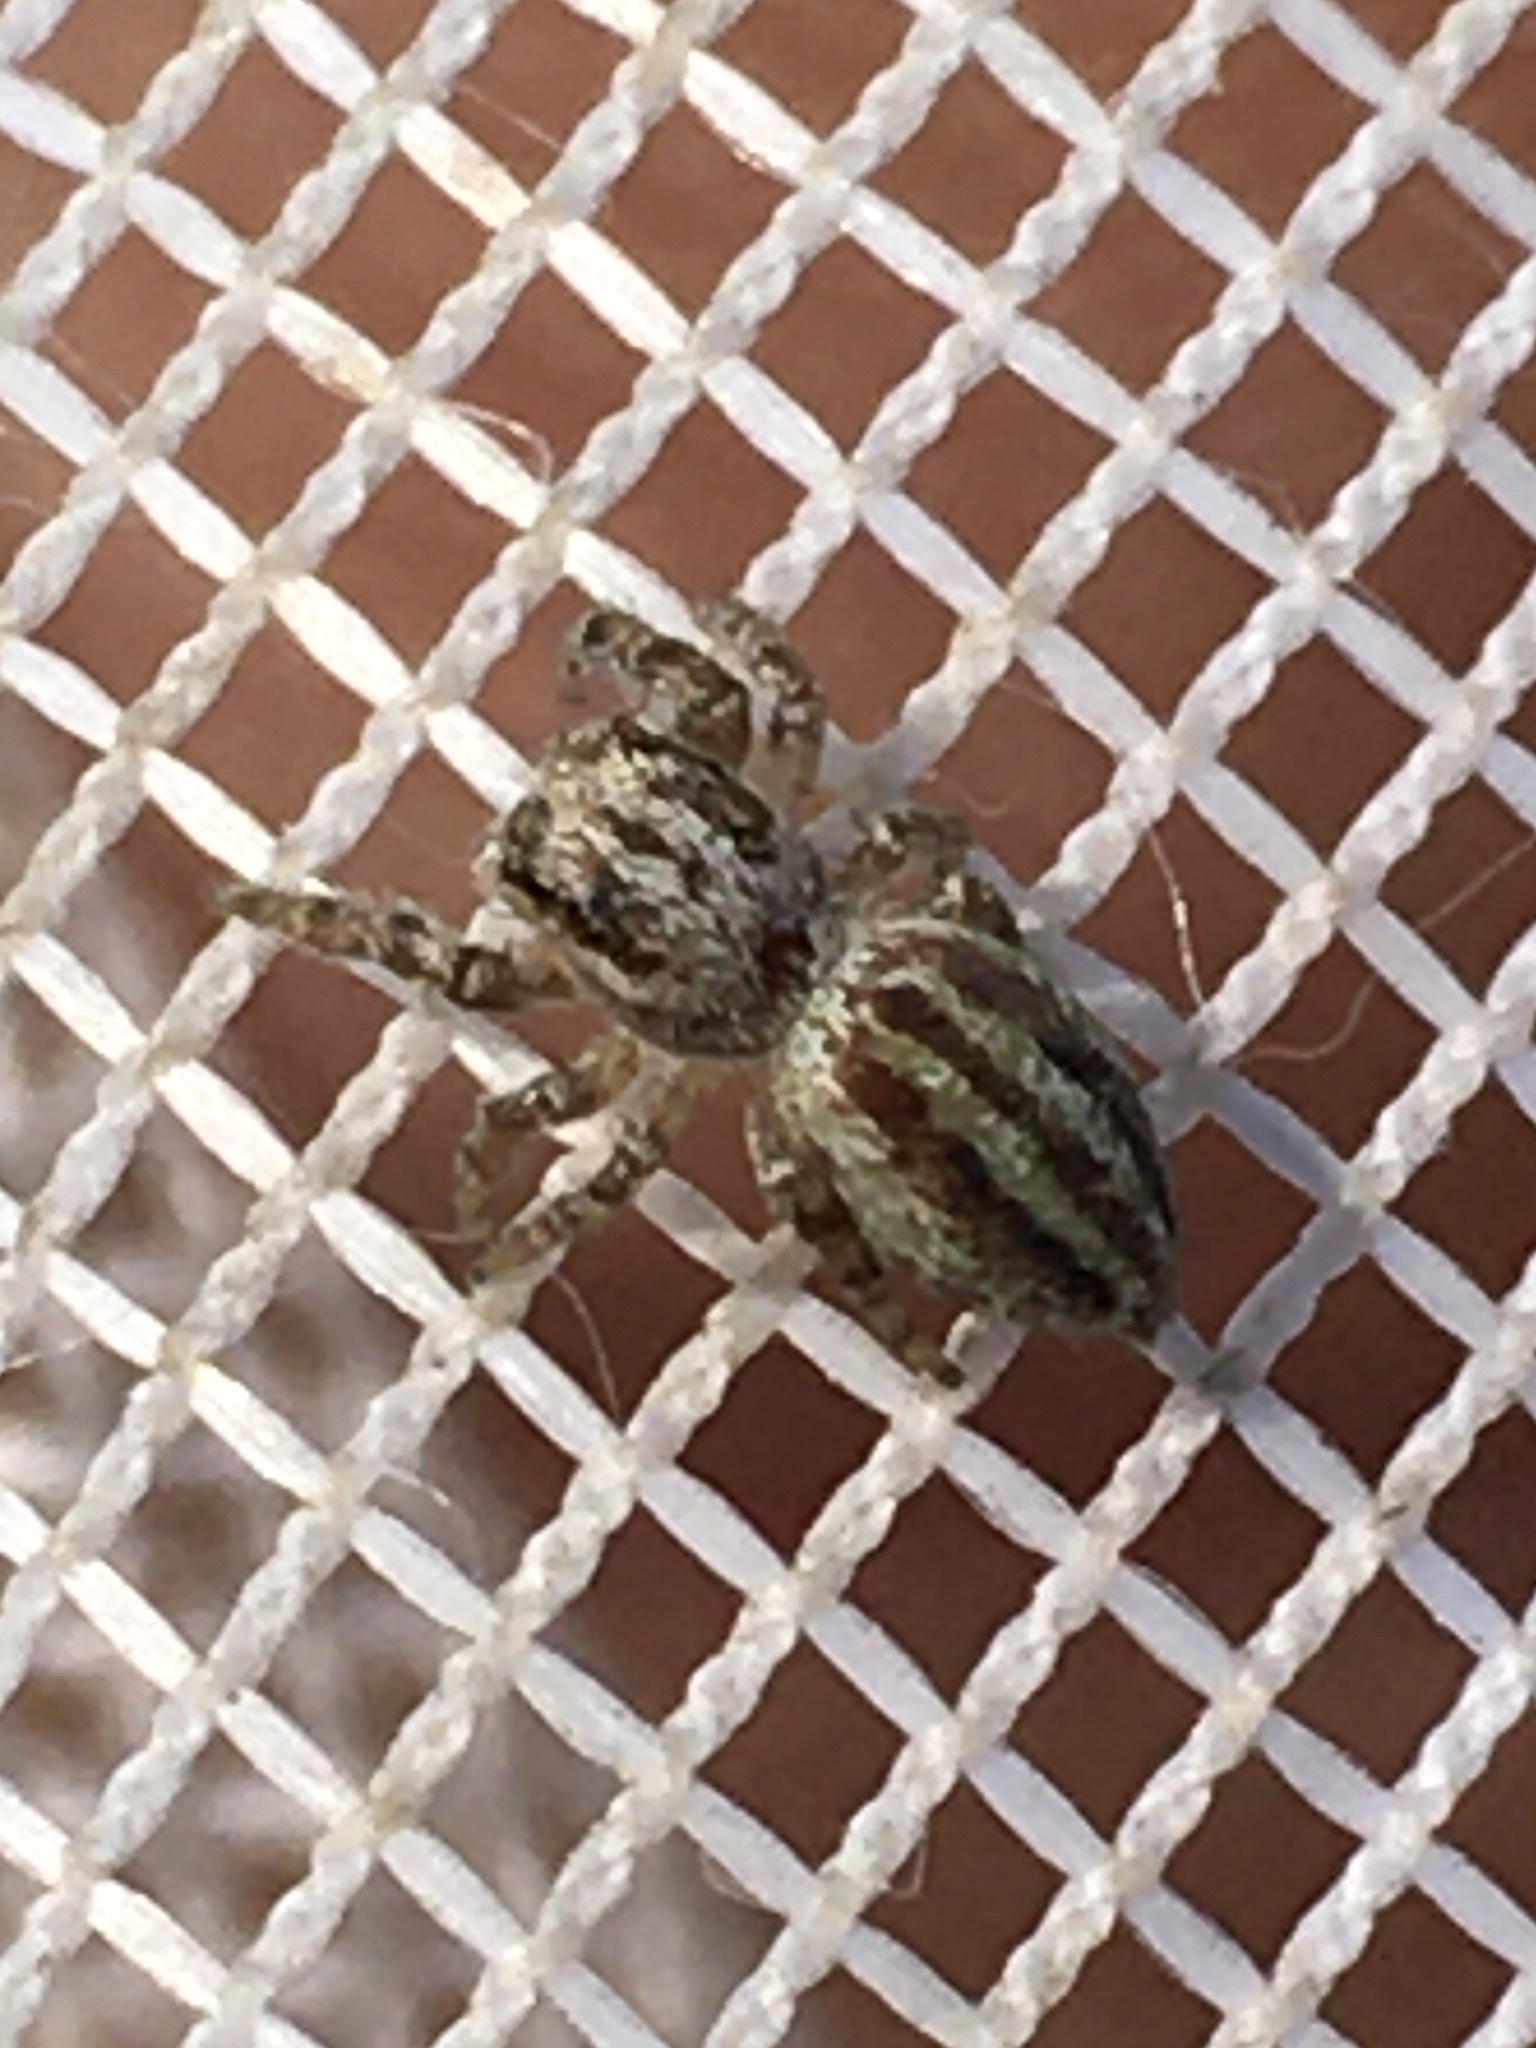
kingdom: Animalia
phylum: Arthropoda
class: Arachnida
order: Araneae
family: Salticidae
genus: Pelegrina
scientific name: Pelegrina arizonensis
